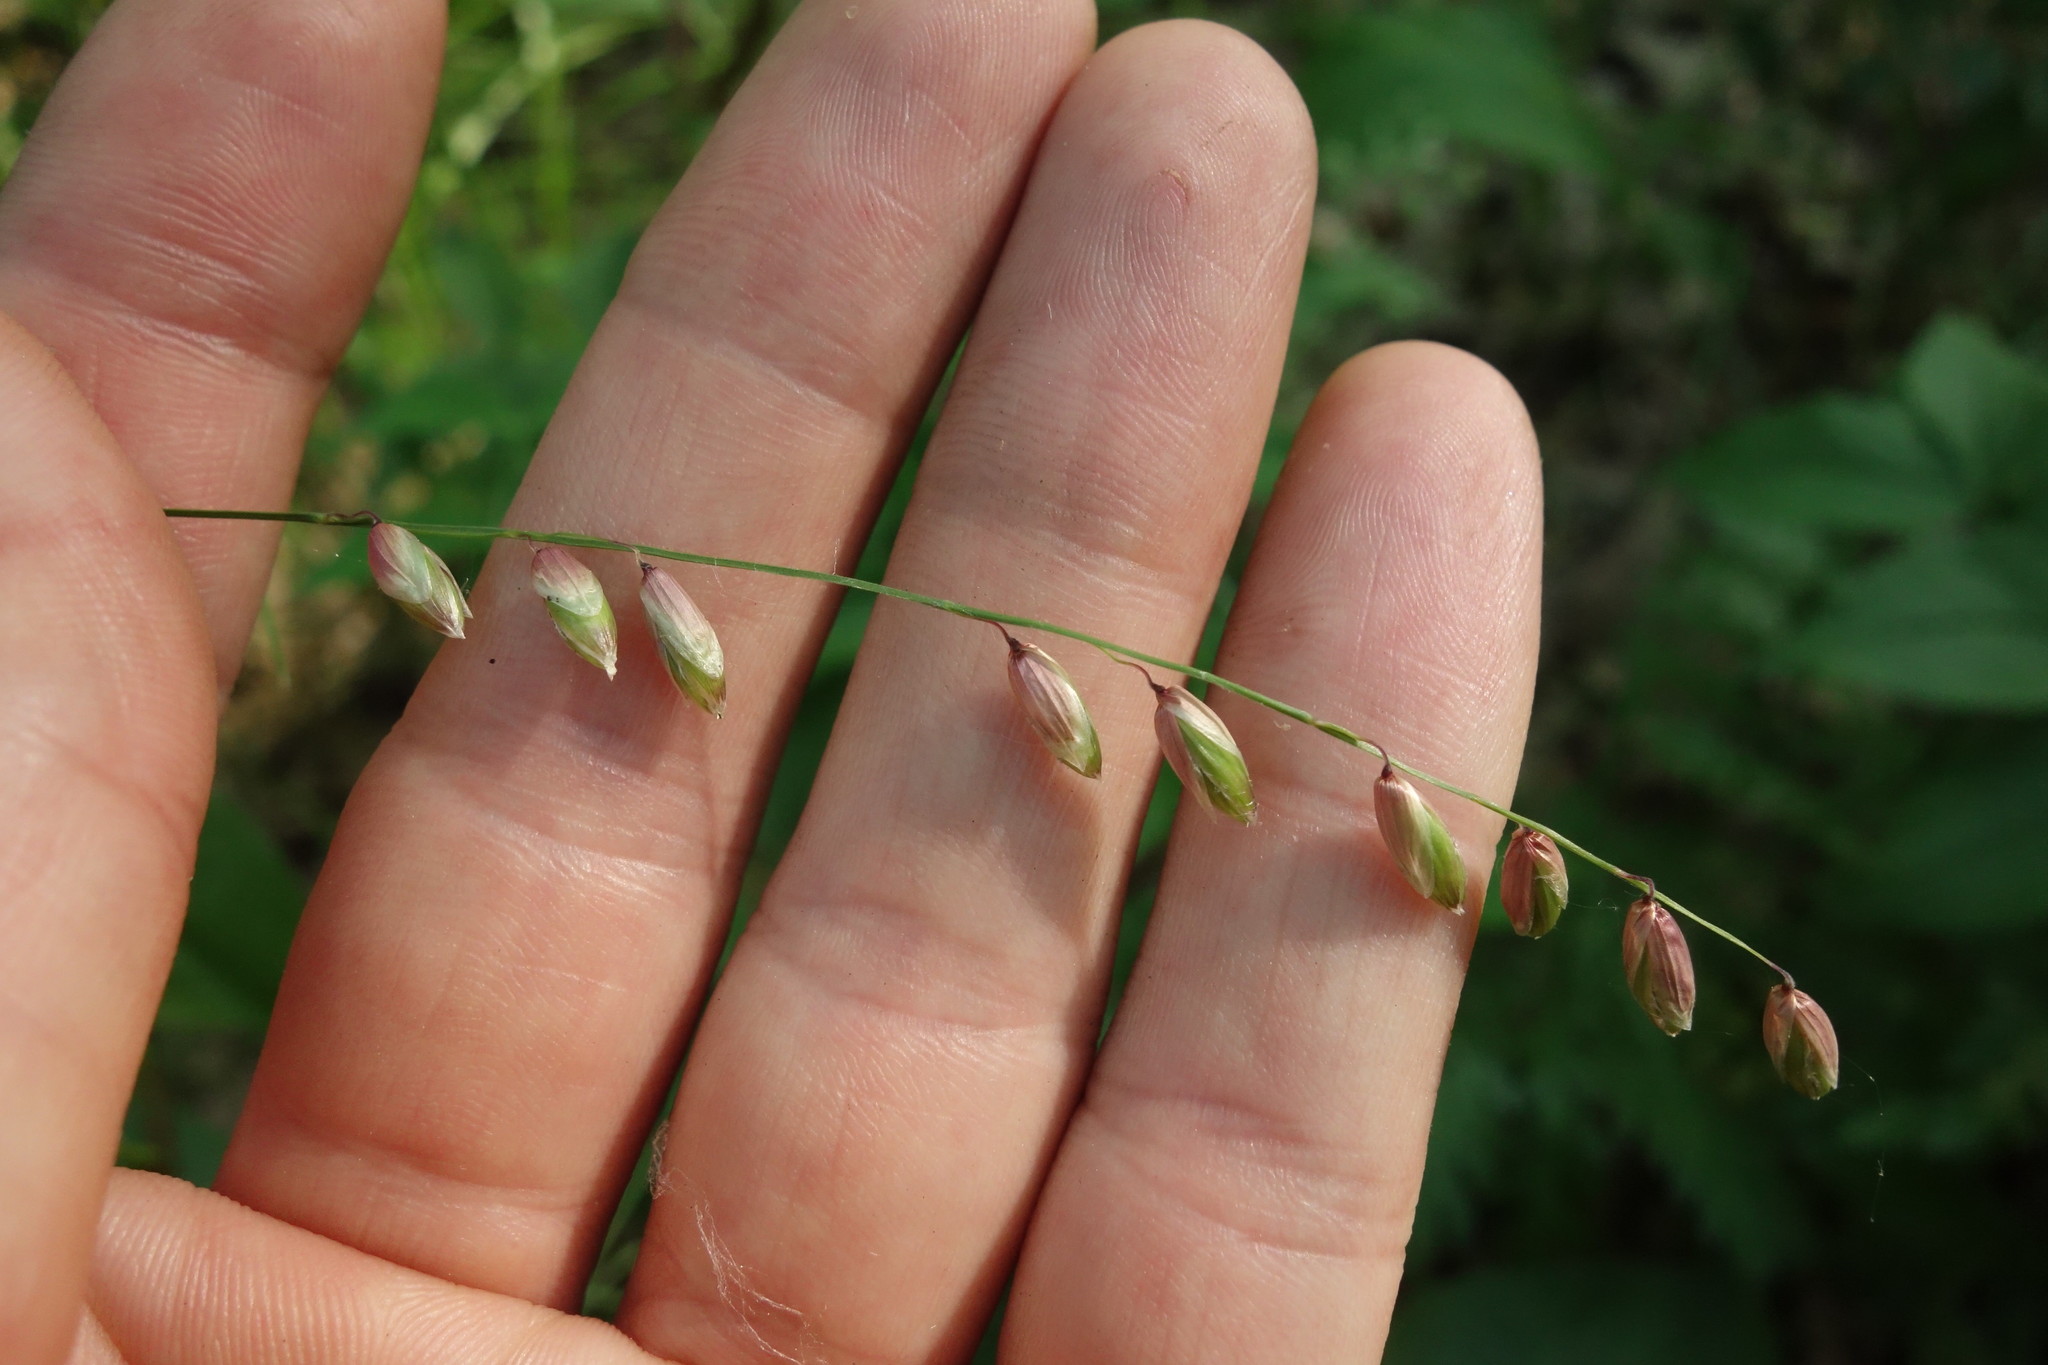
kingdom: Plantae
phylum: Tracheophyta
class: Liliopsida
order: Poales
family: Poaceae
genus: Melica
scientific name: Melica nutans
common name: Mountain melick
